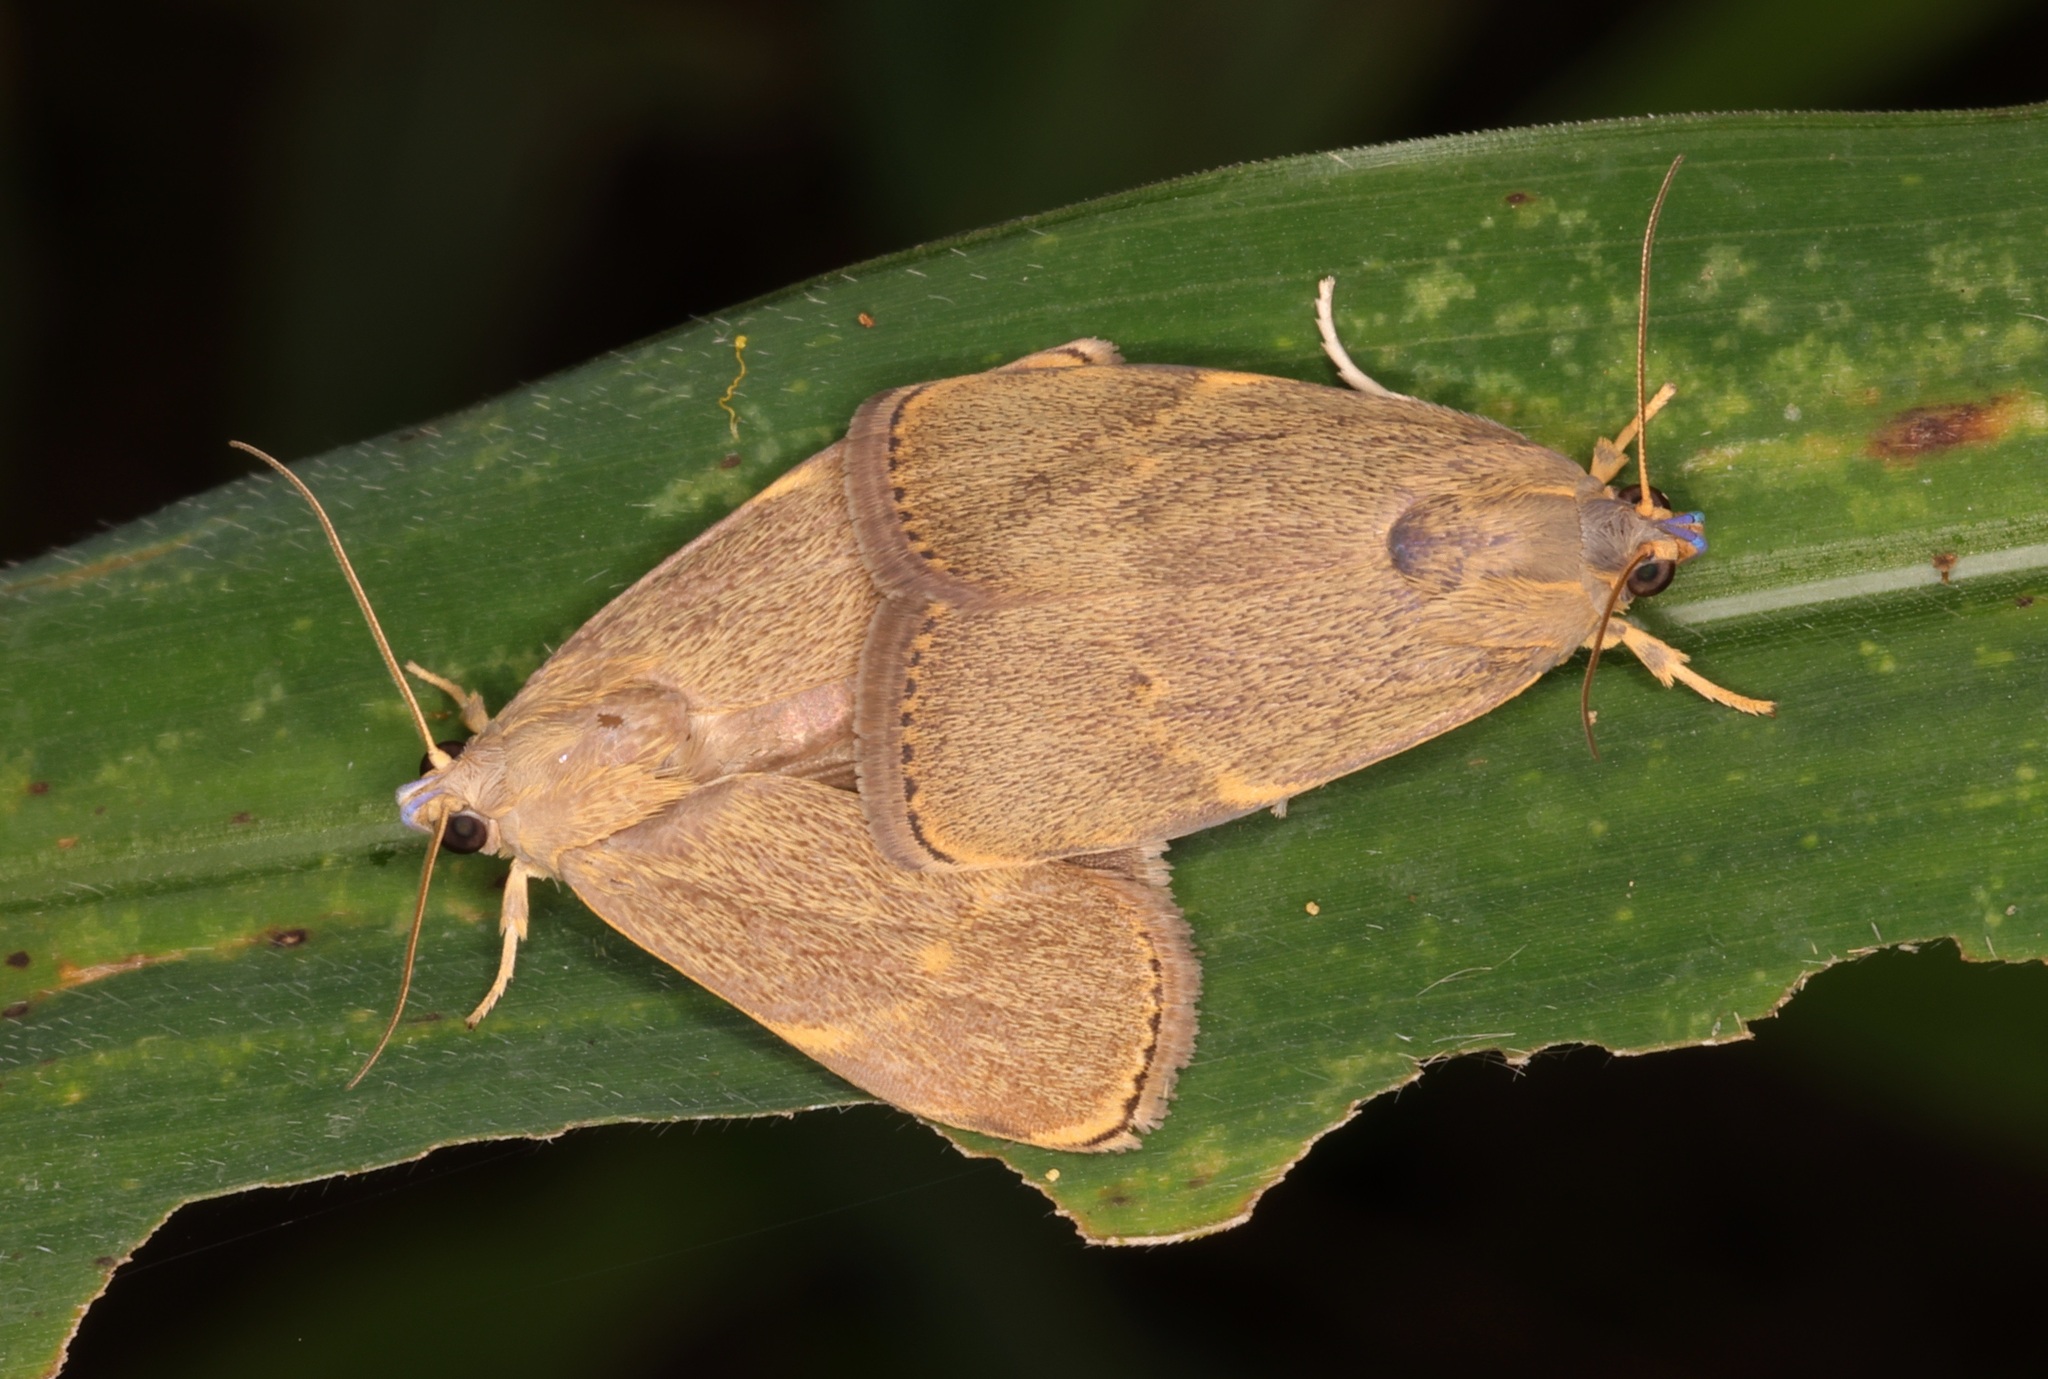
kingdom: Animalia
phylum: Arthropoda
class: Insecta
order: Lepidoptera
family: Immidae
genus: Imma
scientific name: Imma mylias
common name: Moth
